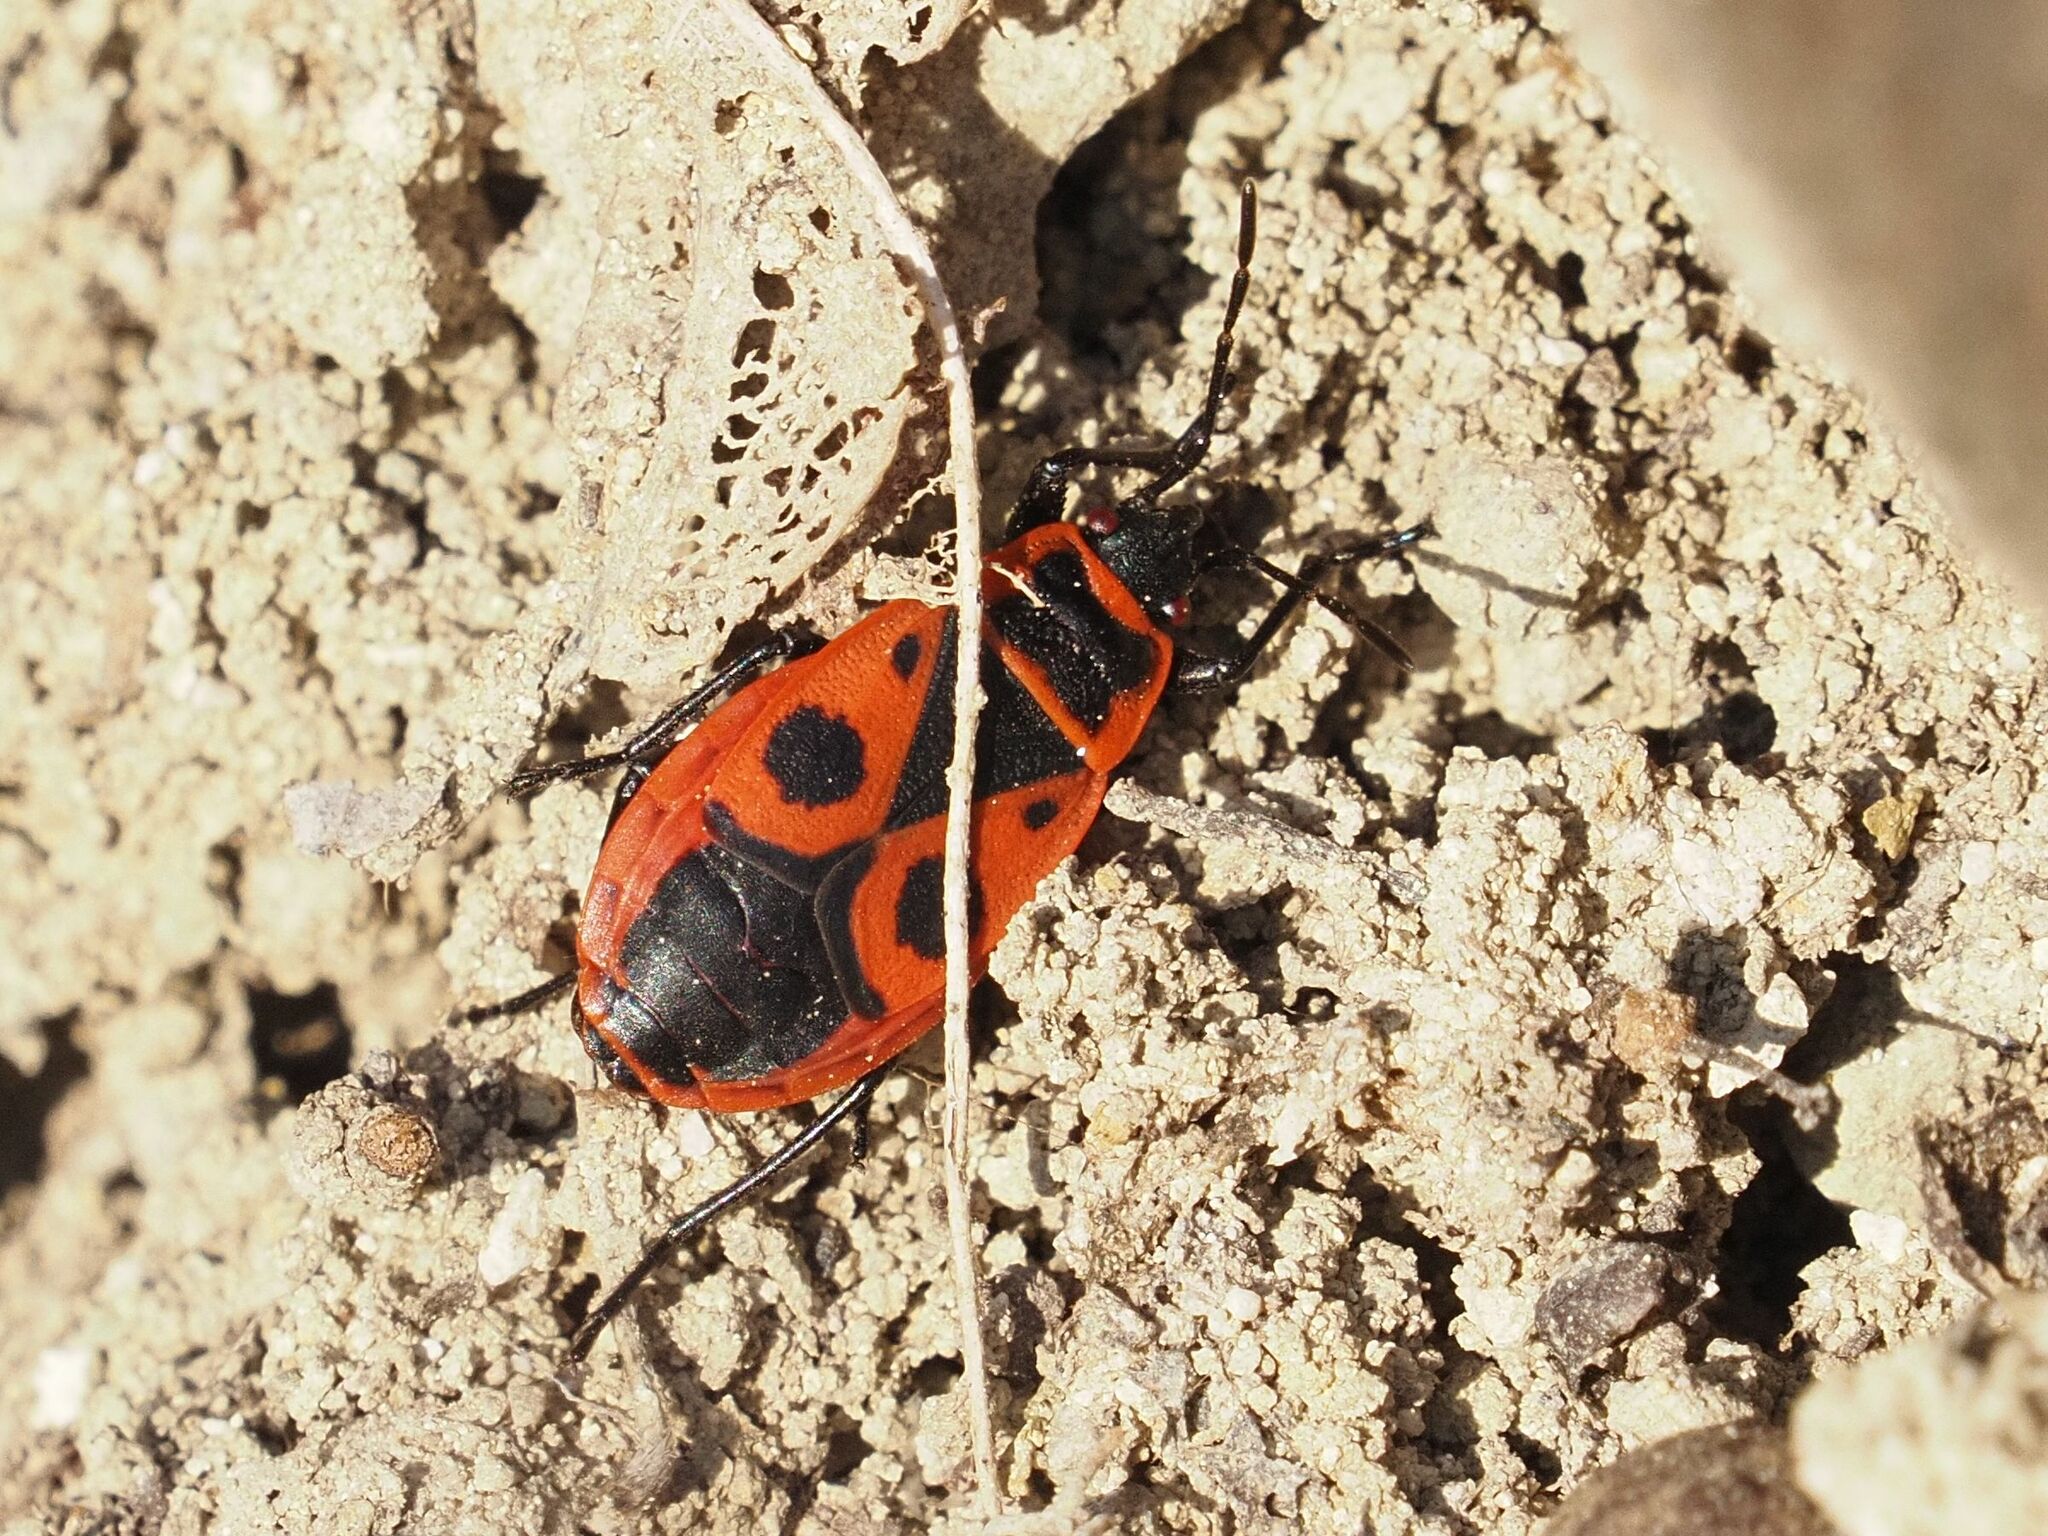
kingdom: Animalia
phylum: Arthropoda
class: Insecta
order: Hemiptera
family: Pyrrhocoridae
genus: Pyrrhocoris
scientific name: Pyrrhocoris apterus
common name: Firebug
